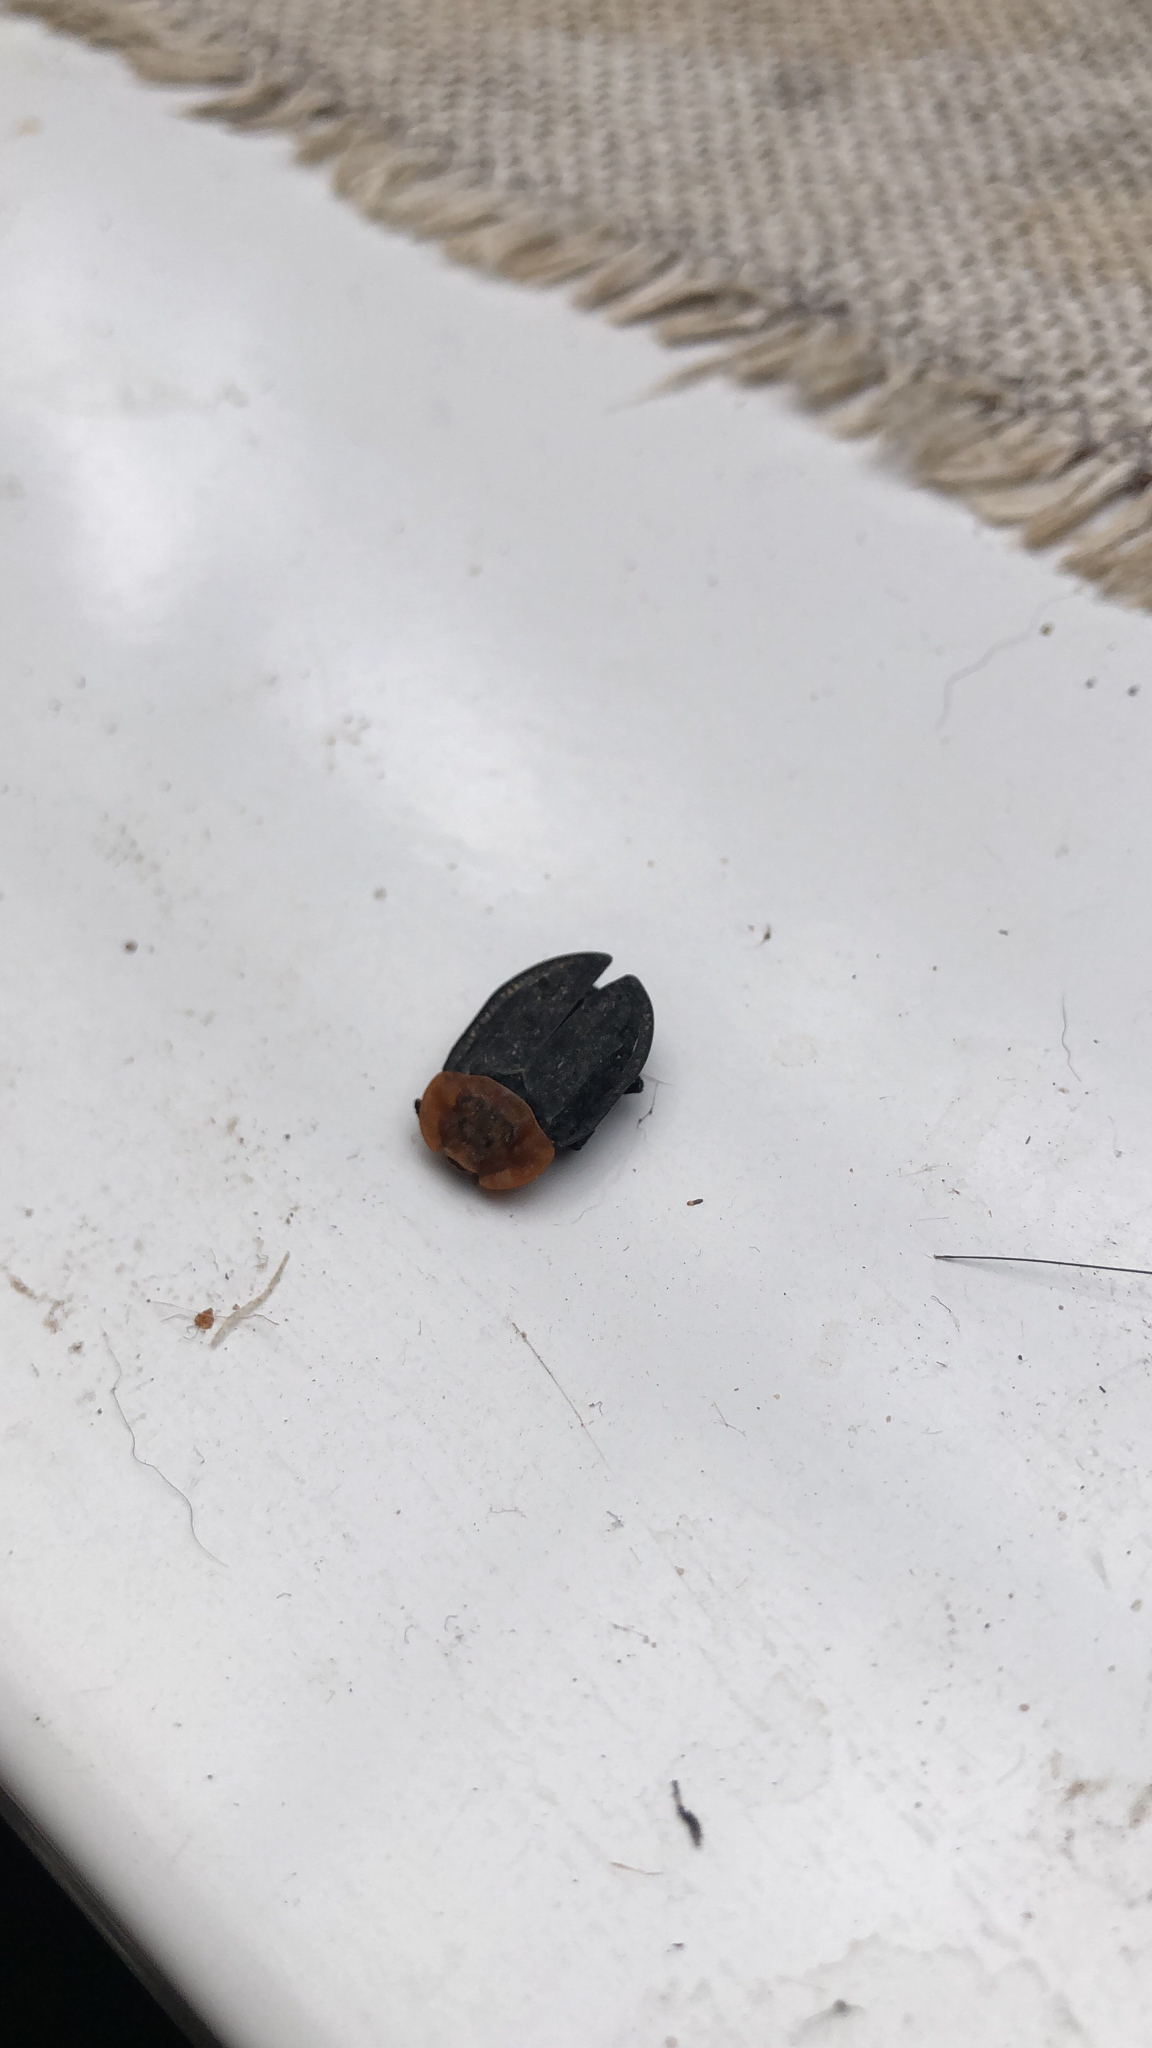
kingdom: Animalia
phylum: Arthropoda
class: Insecta
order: Coleoptera
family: Staphylinidae
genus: Oiceoptoma
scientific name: Oiceoptoma thoracicum
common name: Red-breasted carrion beetle
